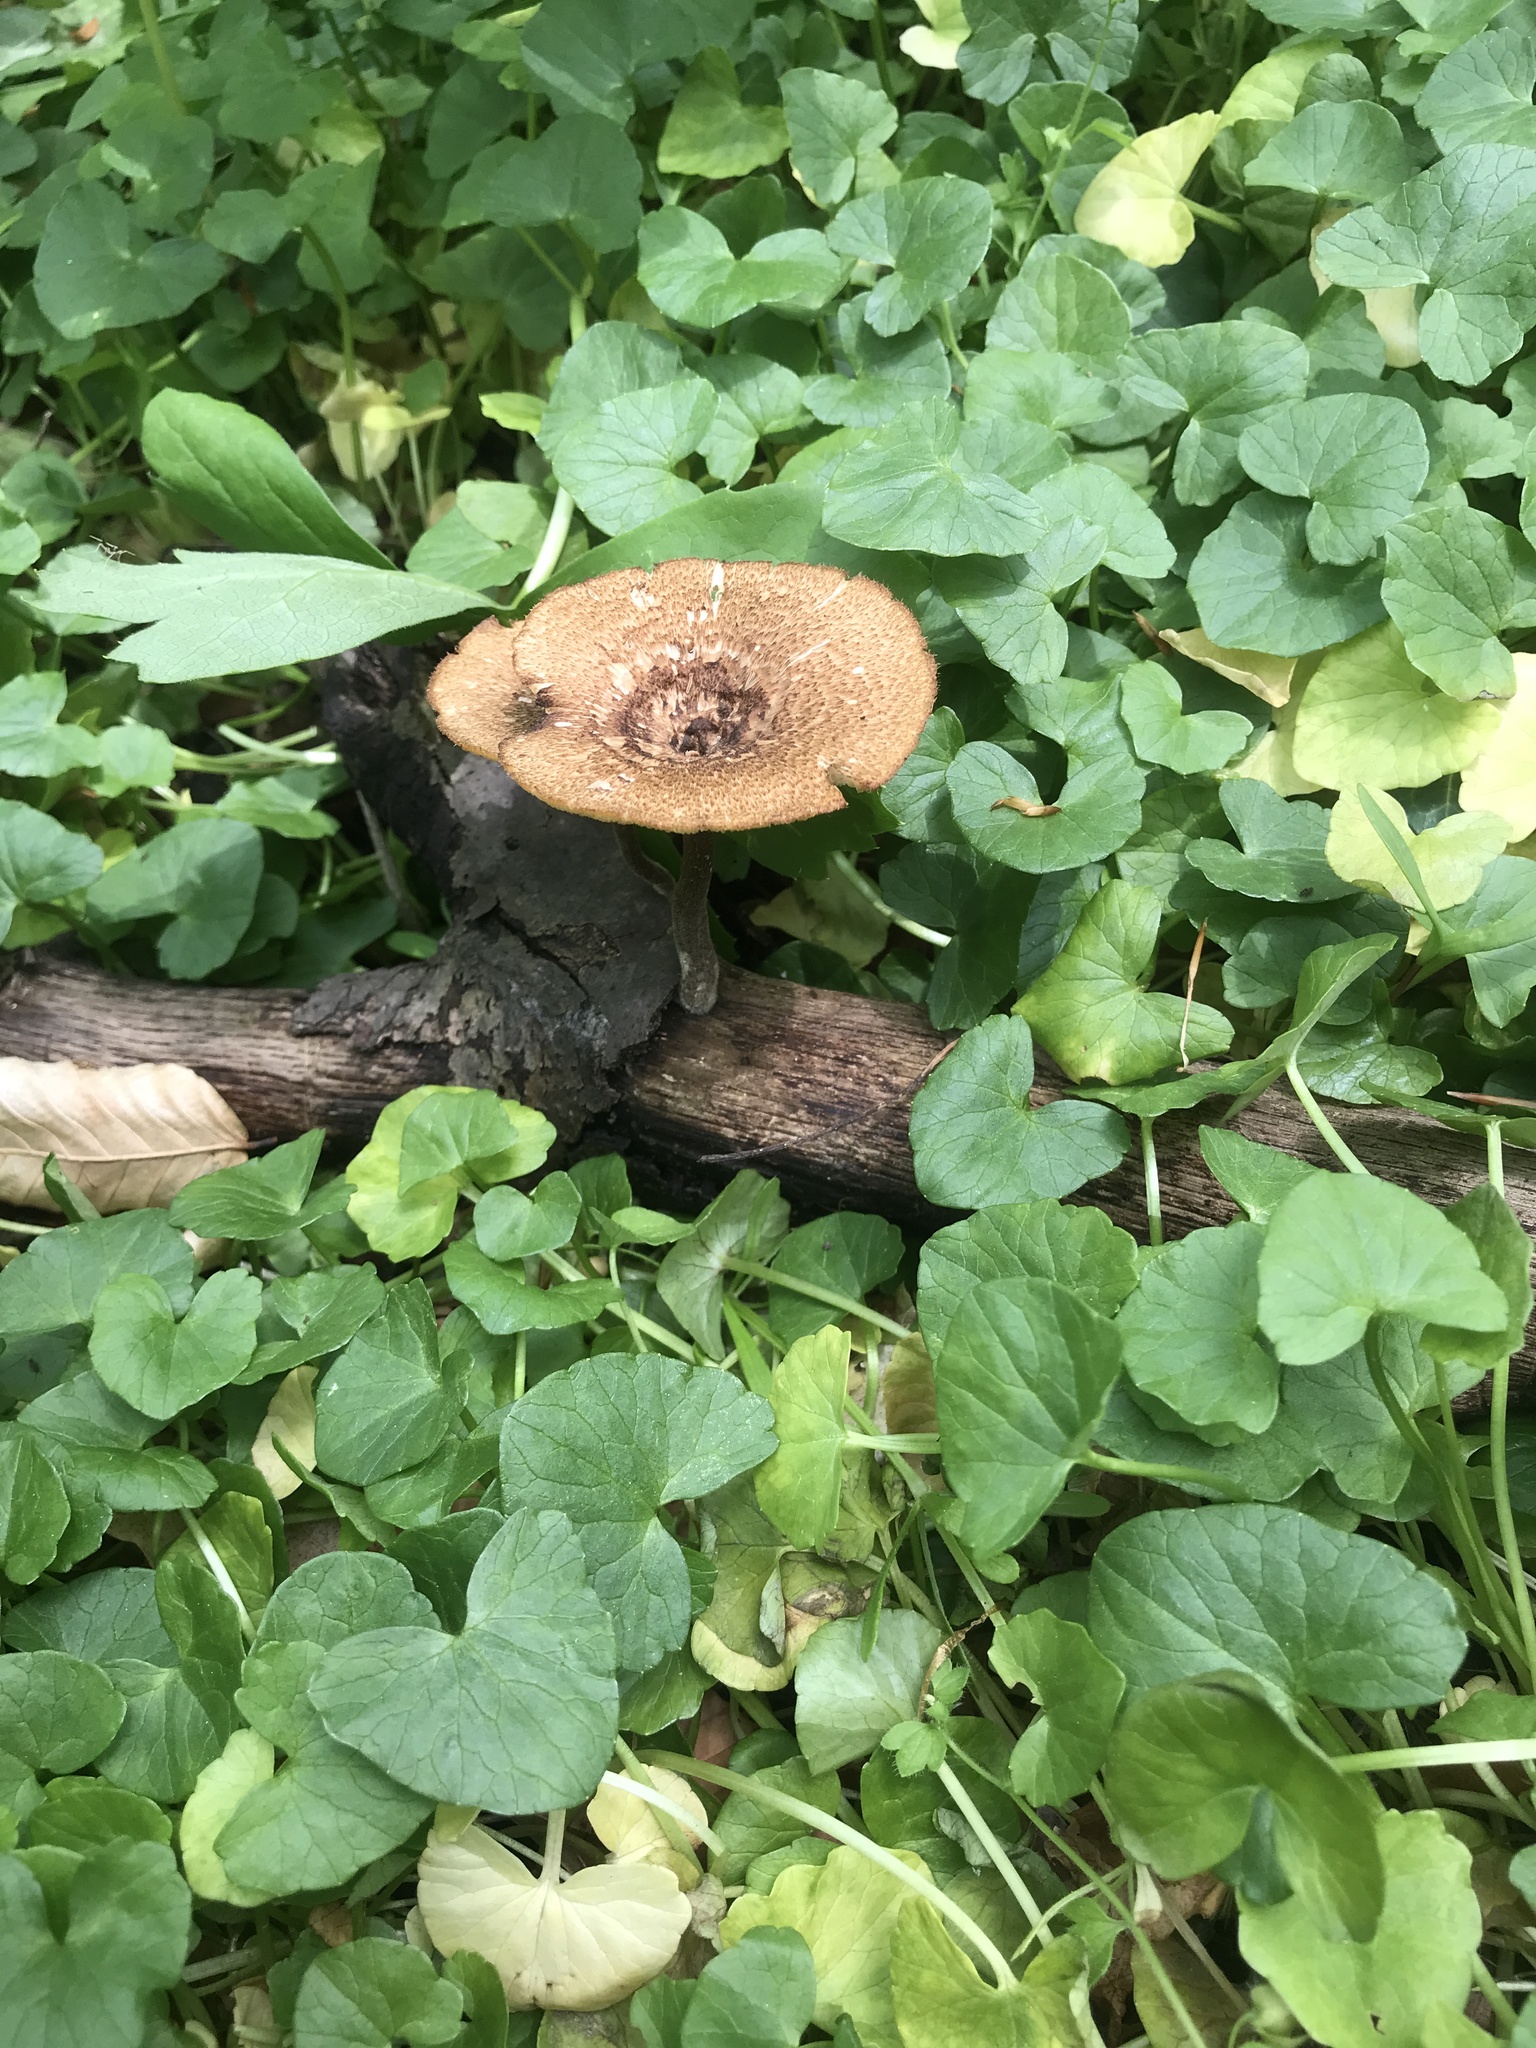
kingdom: Fungi
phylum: Basidiomycota
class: Agaricomycetes
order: Polyporales
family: Polyporaceae
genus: Lentinus
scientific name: Lentinus arcularius
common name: Spring polypore
